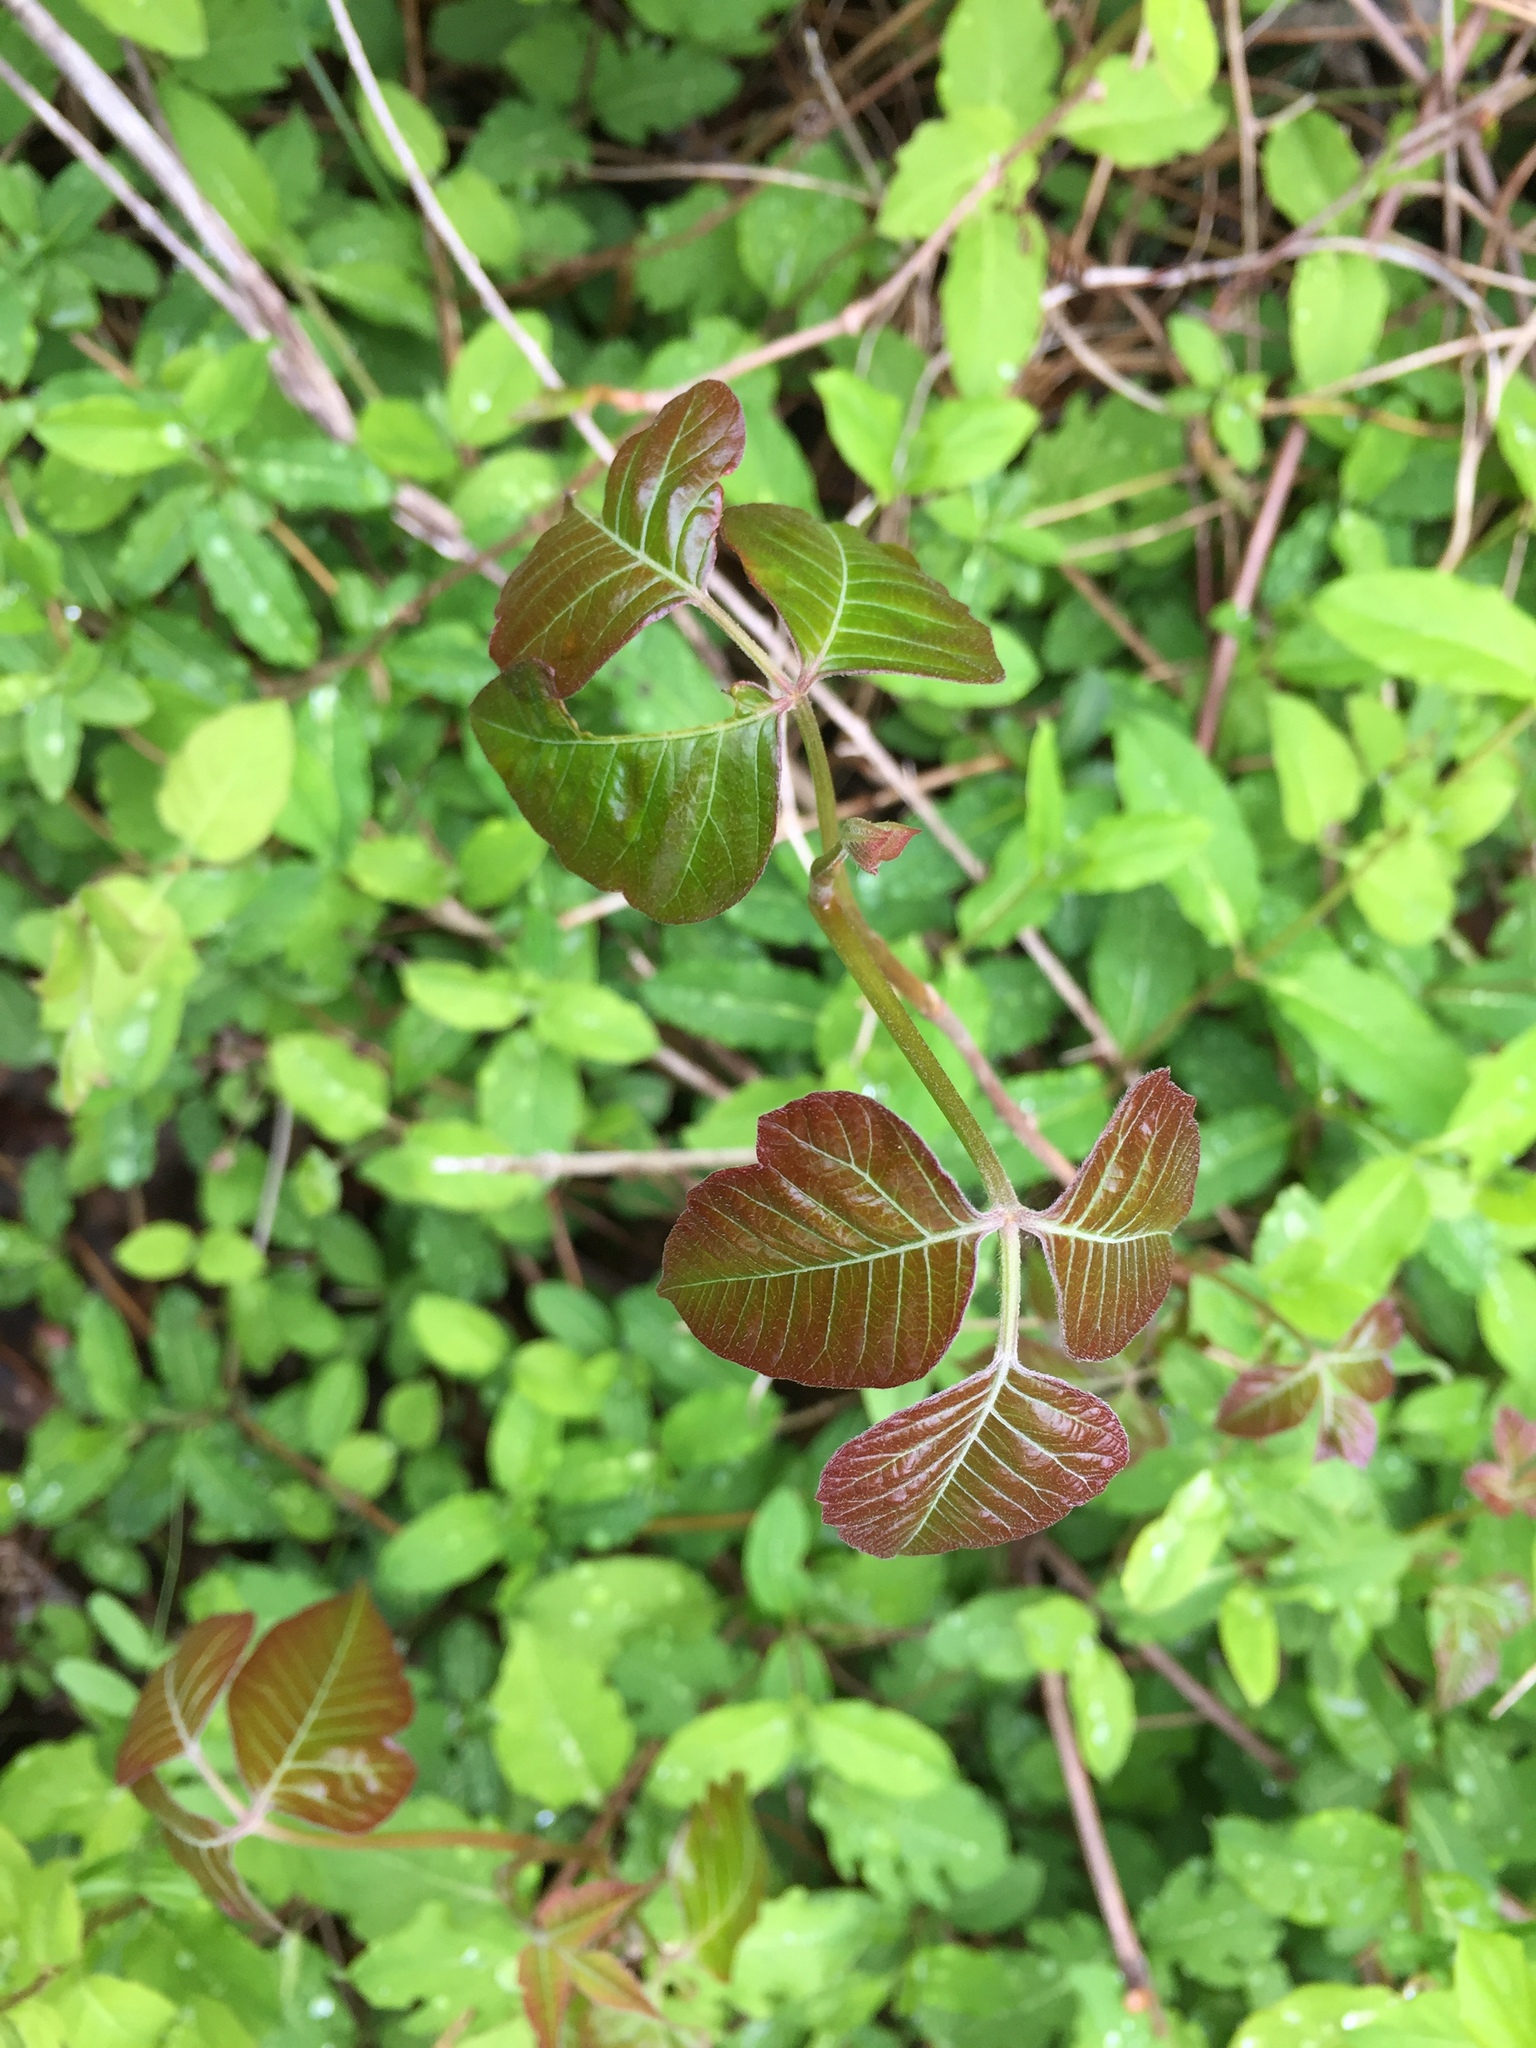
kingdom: Plantae
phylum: Tracheophyta
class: Magnoliopsida
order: Sapindales
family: Anacardiaceae
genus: Toxicodendron
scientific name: Toxicodendron radicans
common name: Poison ivy
